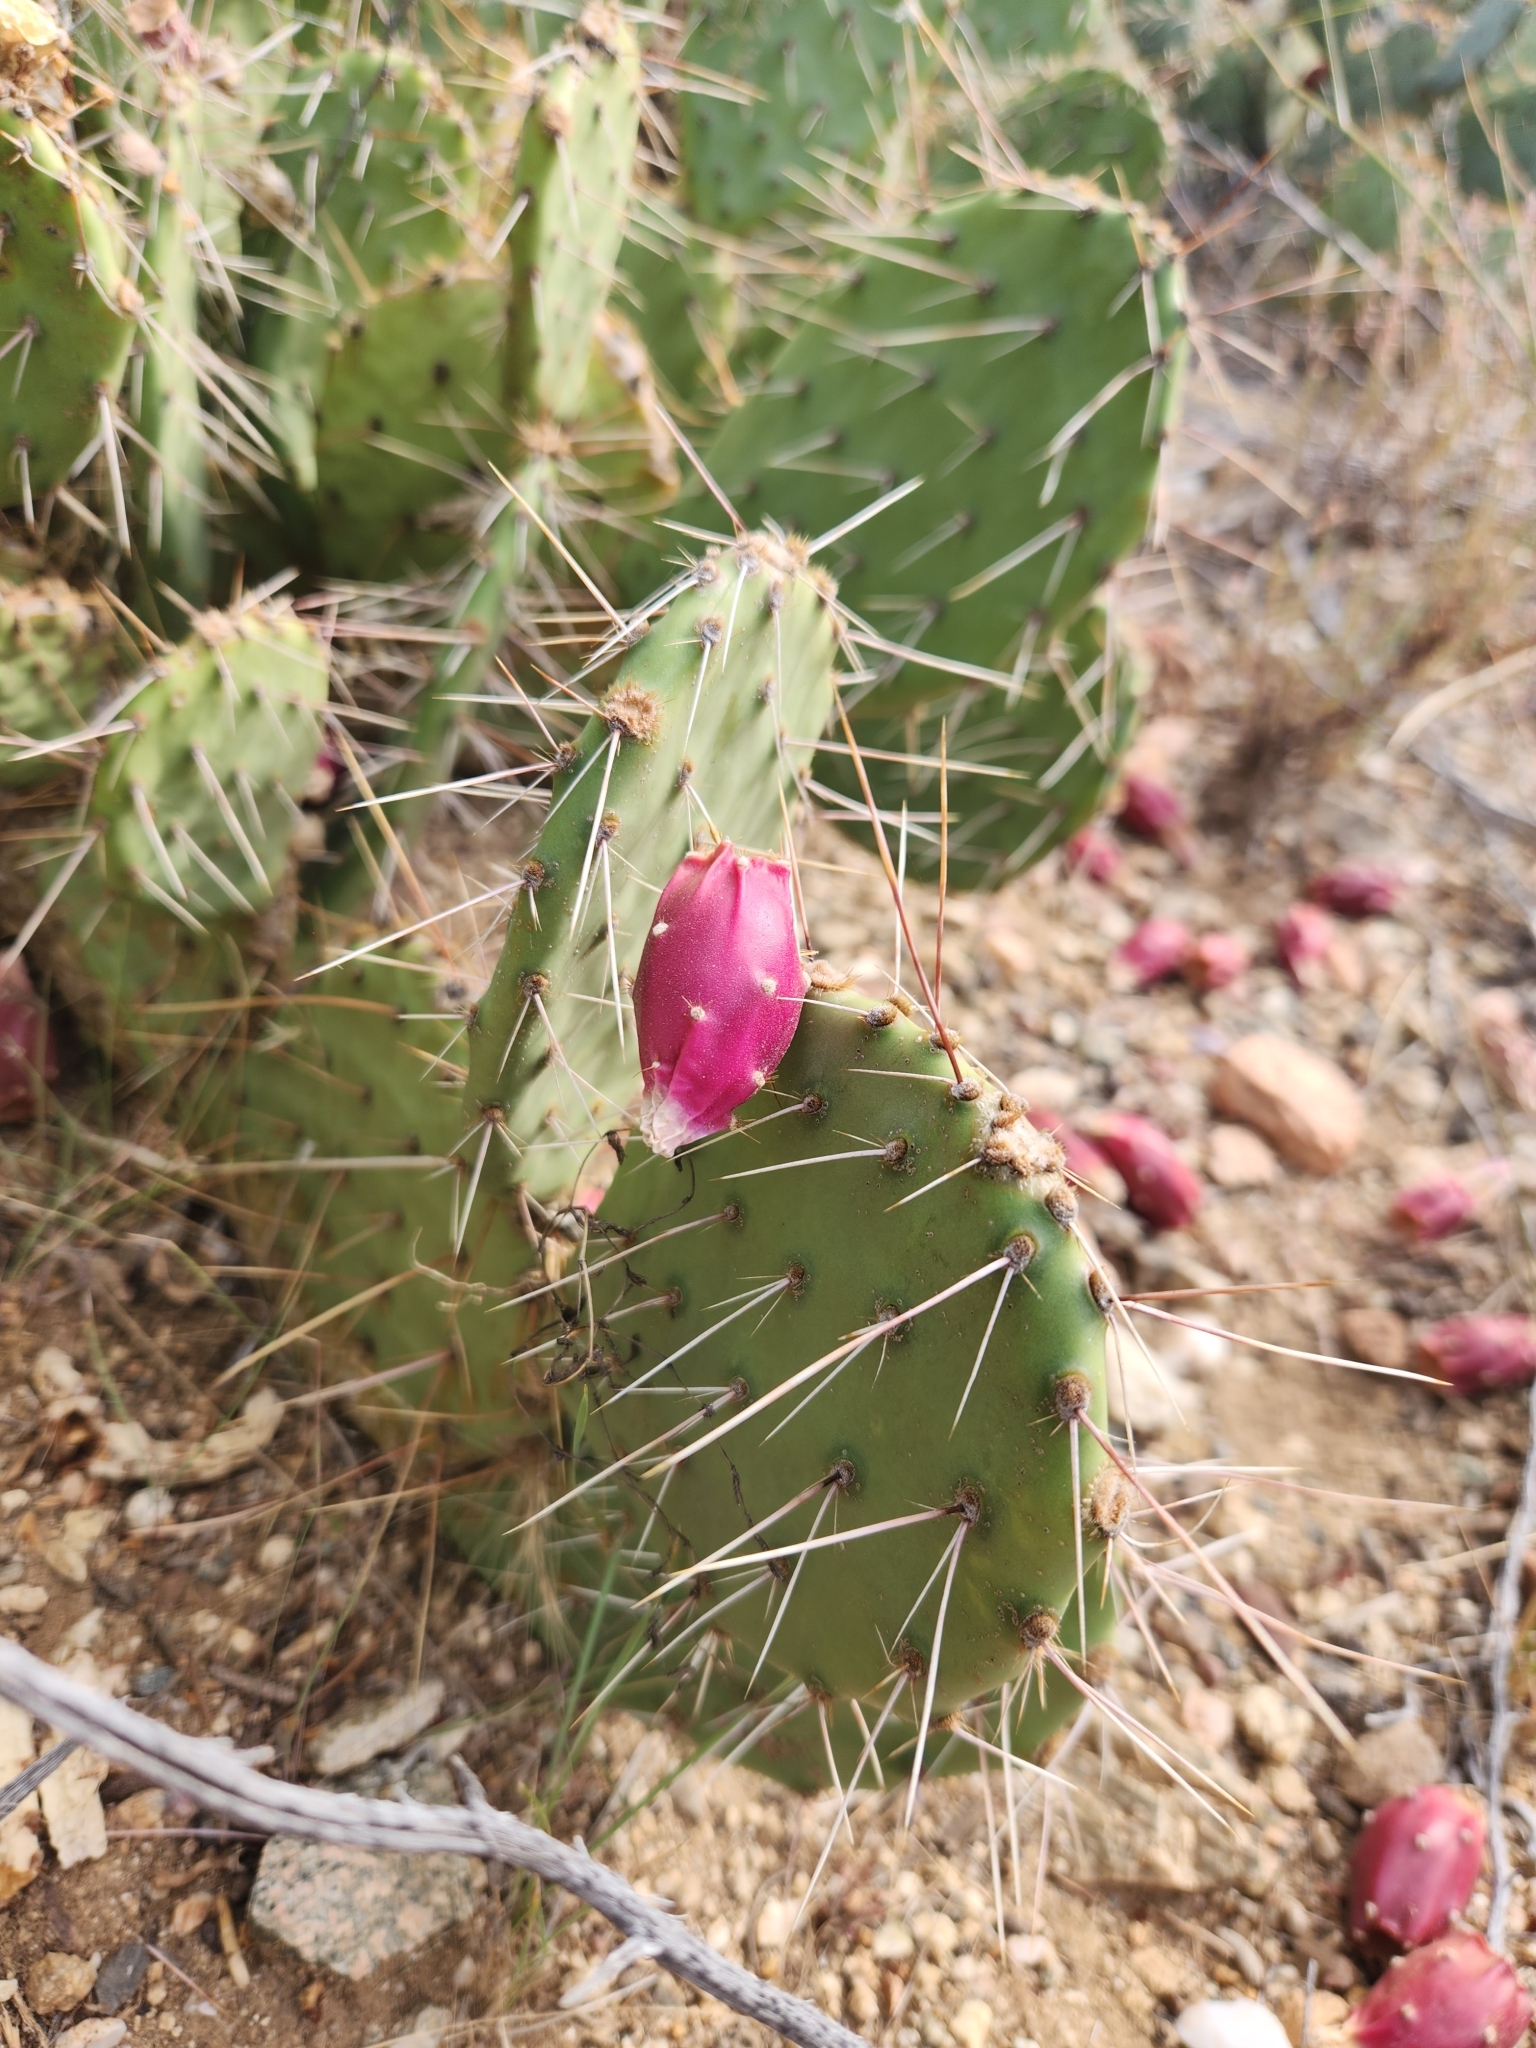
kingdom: Plantae
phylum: Tracheophyta
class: Magnoliopsida
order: Caryophyllales
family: Cactaceae
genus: Opuntia
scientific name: Opuntia phaeacantha
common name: New mexico prickly-pear
